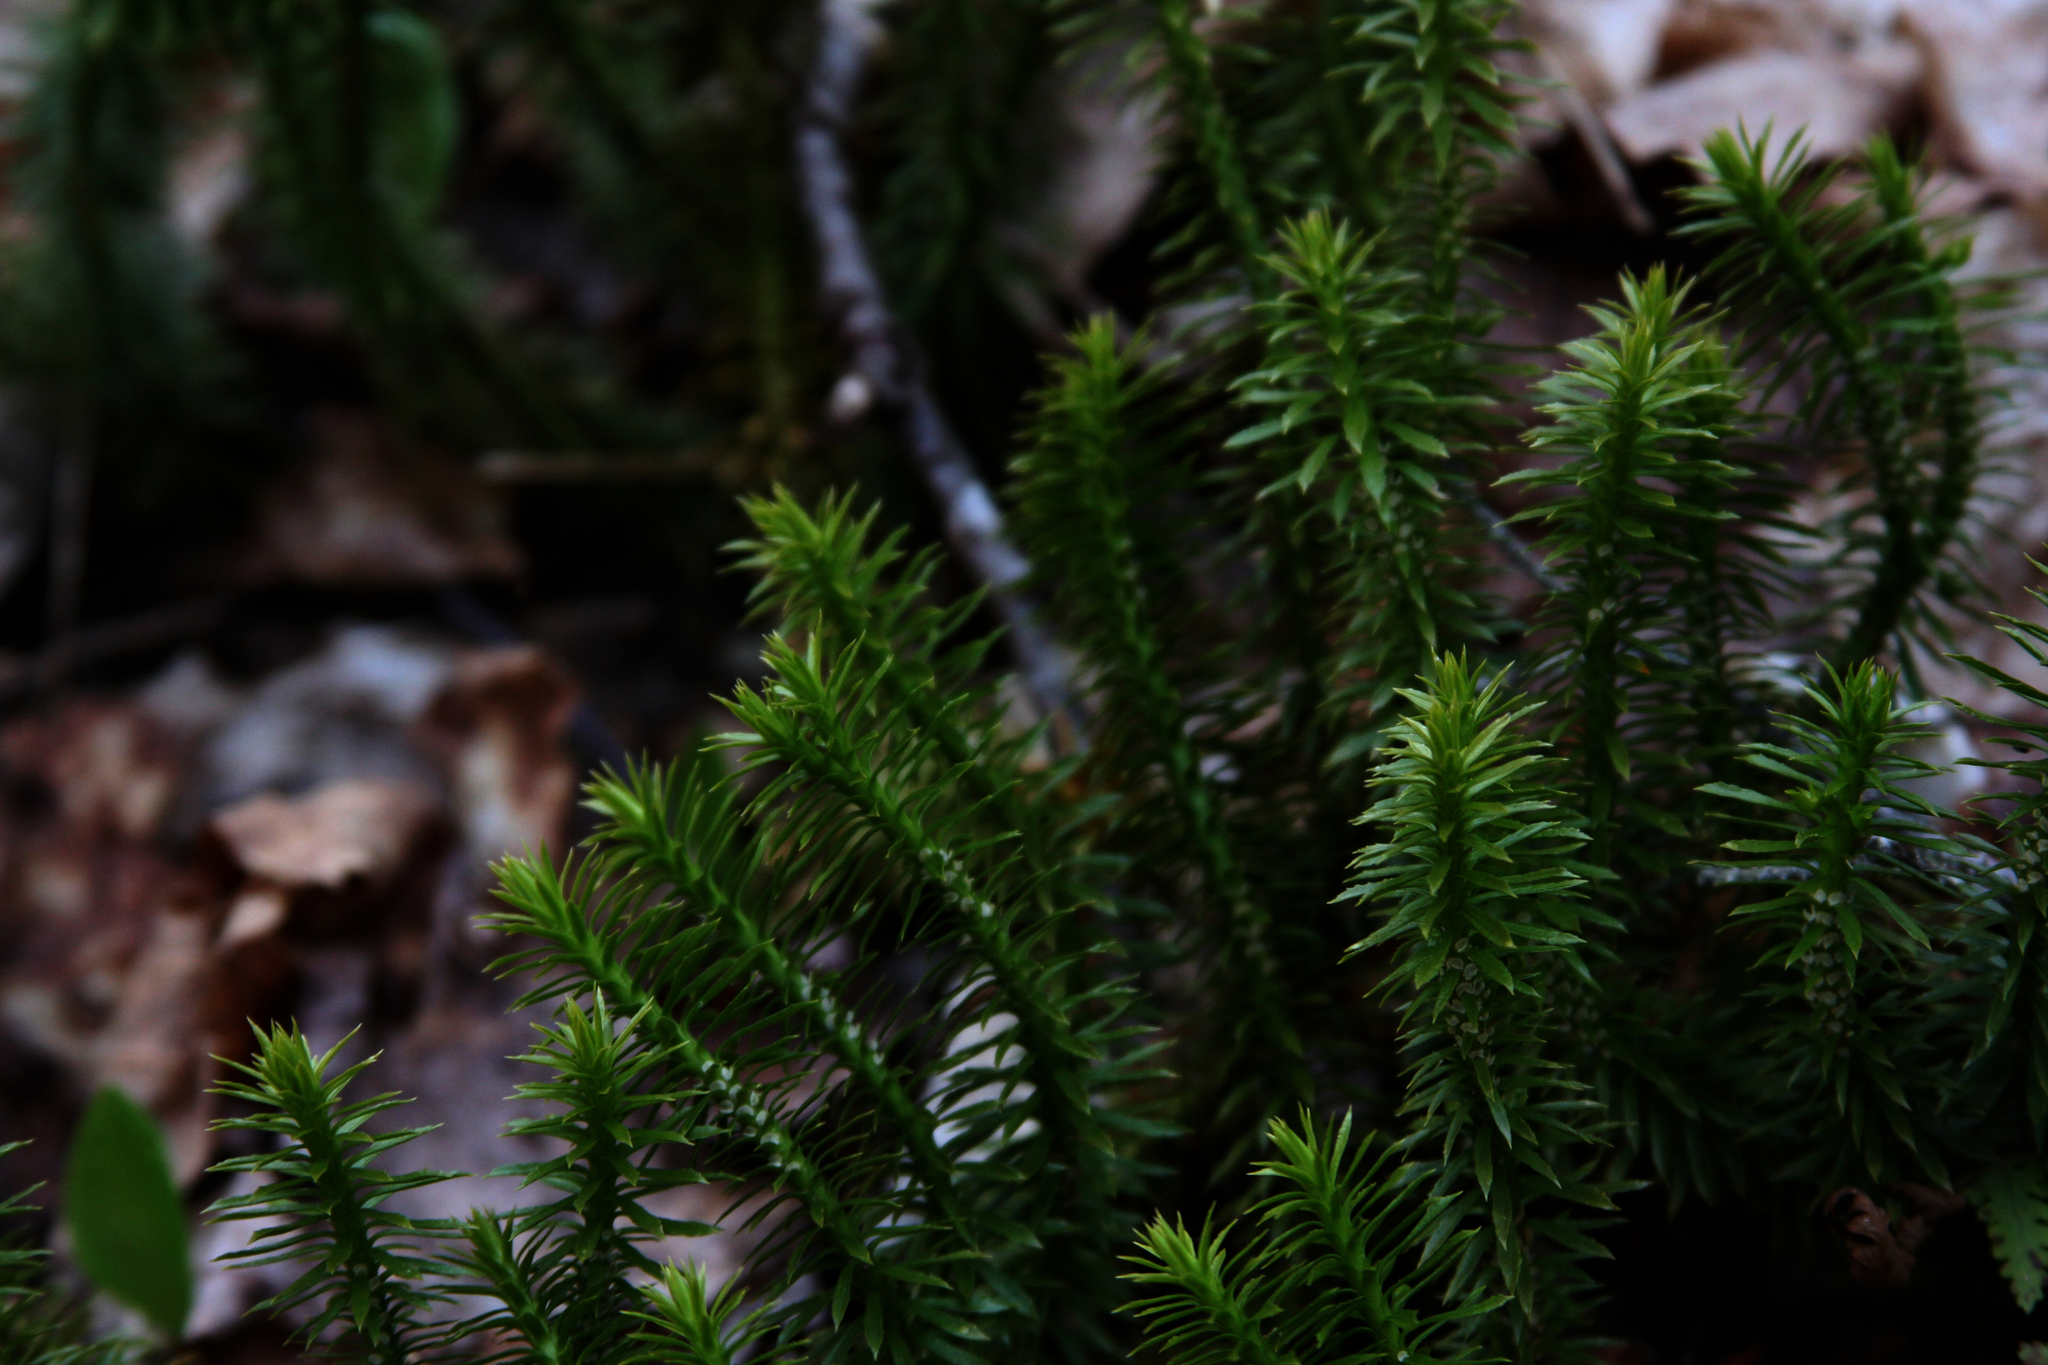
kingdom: Plantae
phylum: Tracheophyta
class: Lycopodiopsida
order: Lycopodiales
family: Lycopodiaceae
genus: Huperzia
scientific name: Huperzia lucidula
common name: Shining clubmoss
